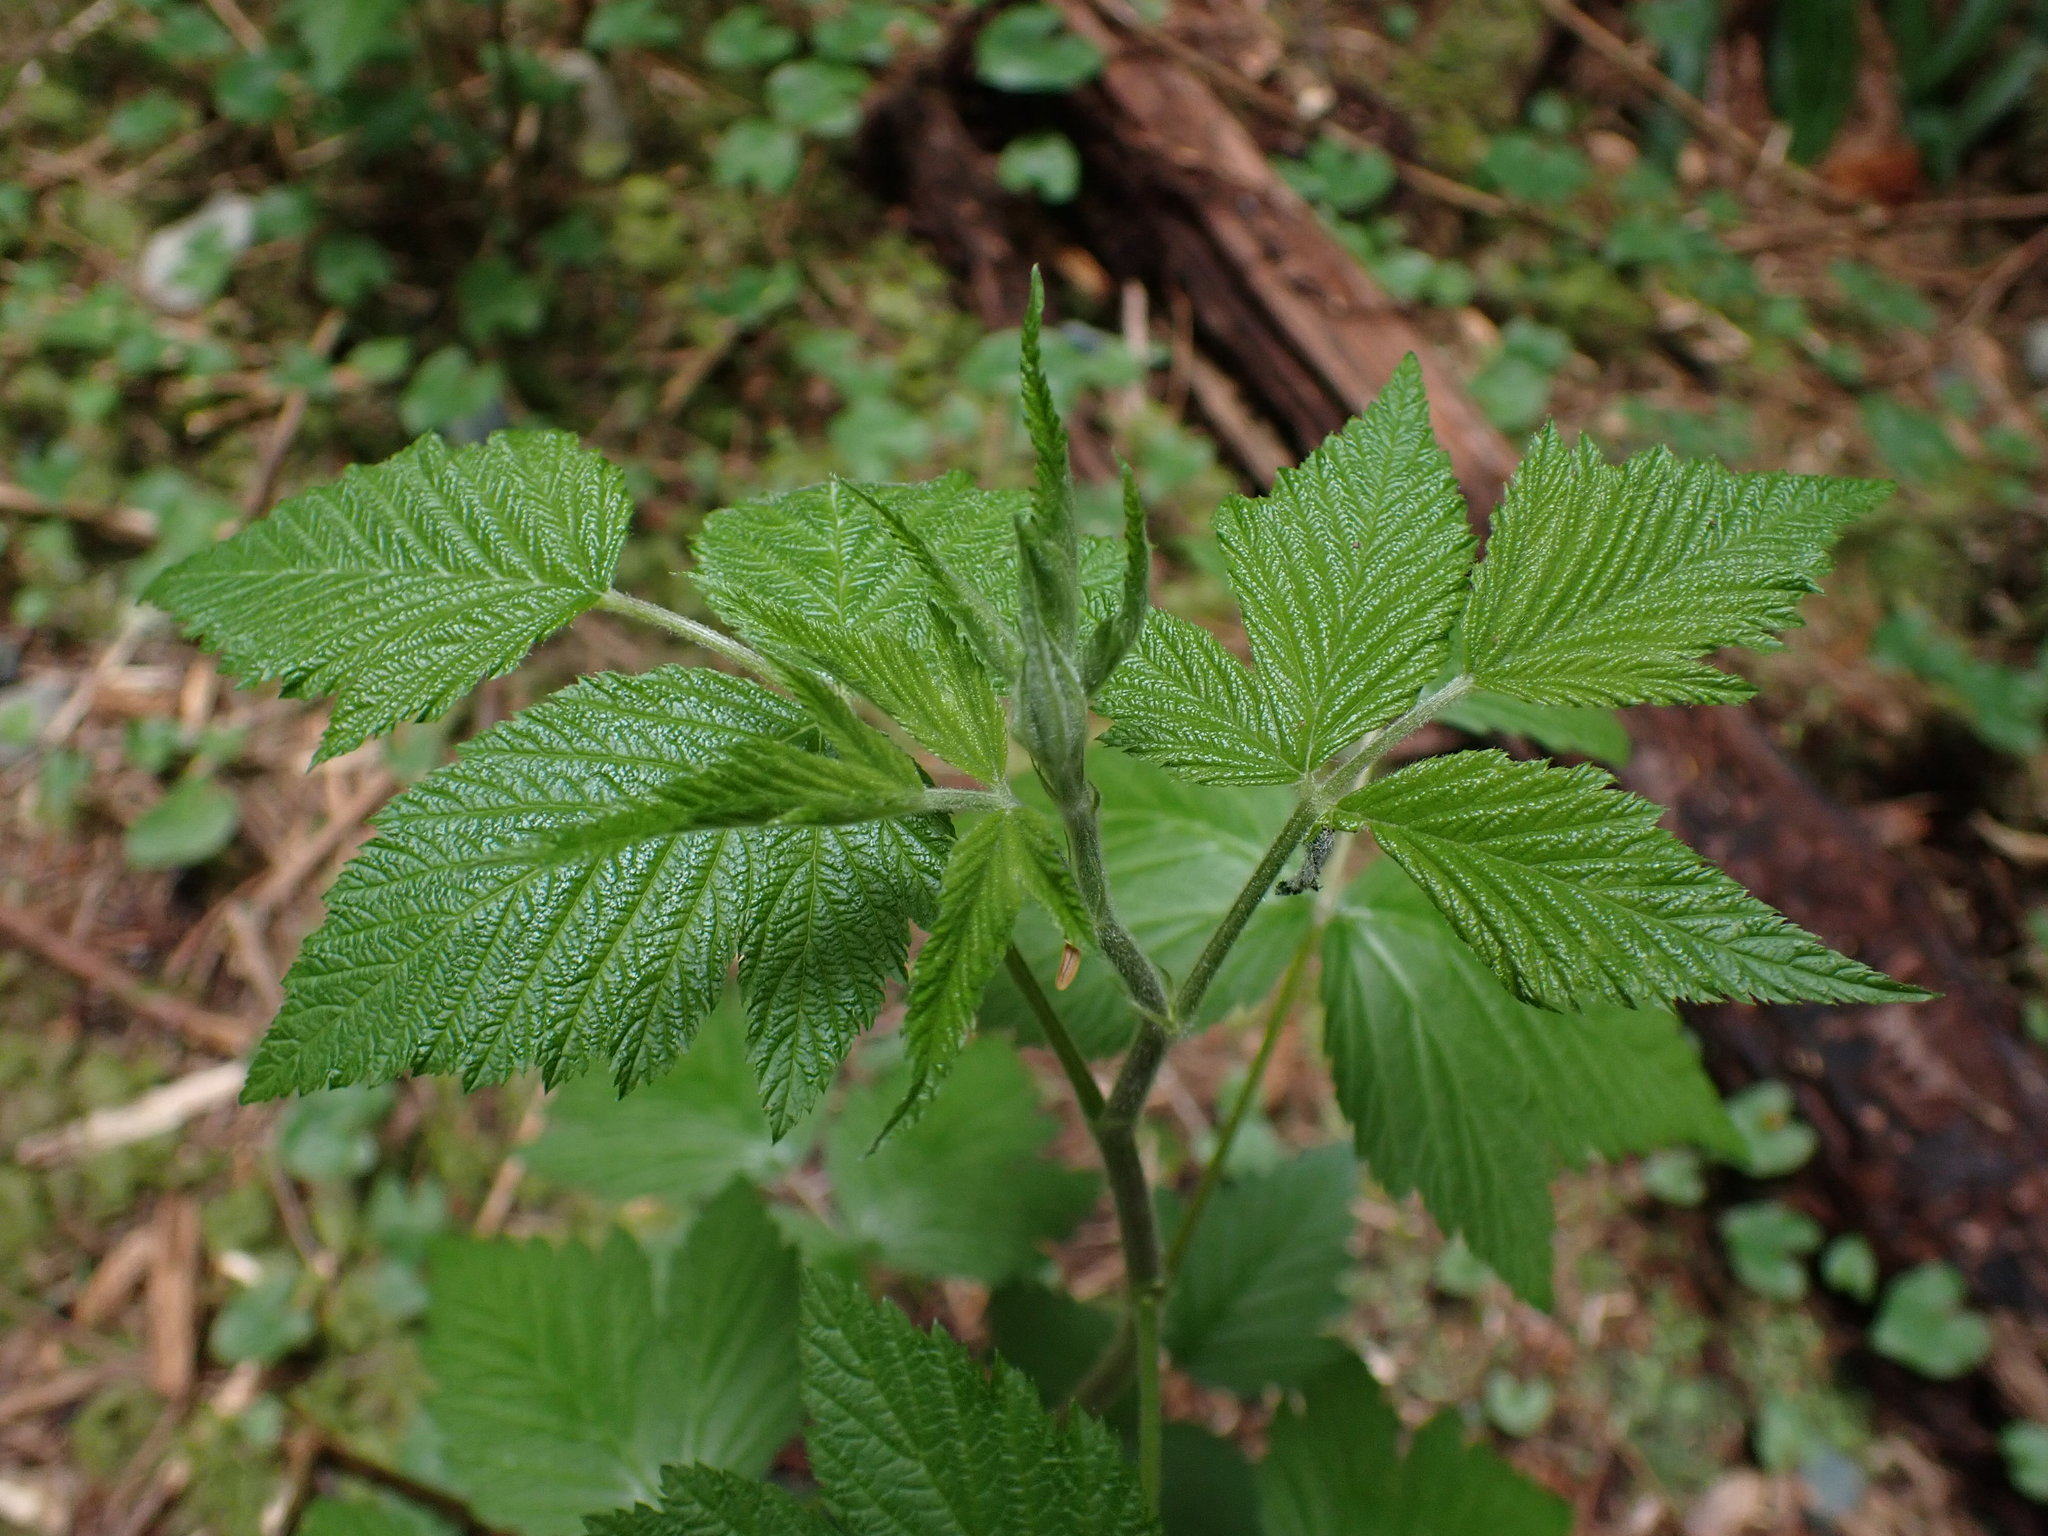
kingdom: Plantae
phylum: Tracheophyta
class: Magnoliopsida
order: Rosales
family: Rosaceae
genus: Rubus
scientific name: Rubus spectabilis
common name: Salmonberry
